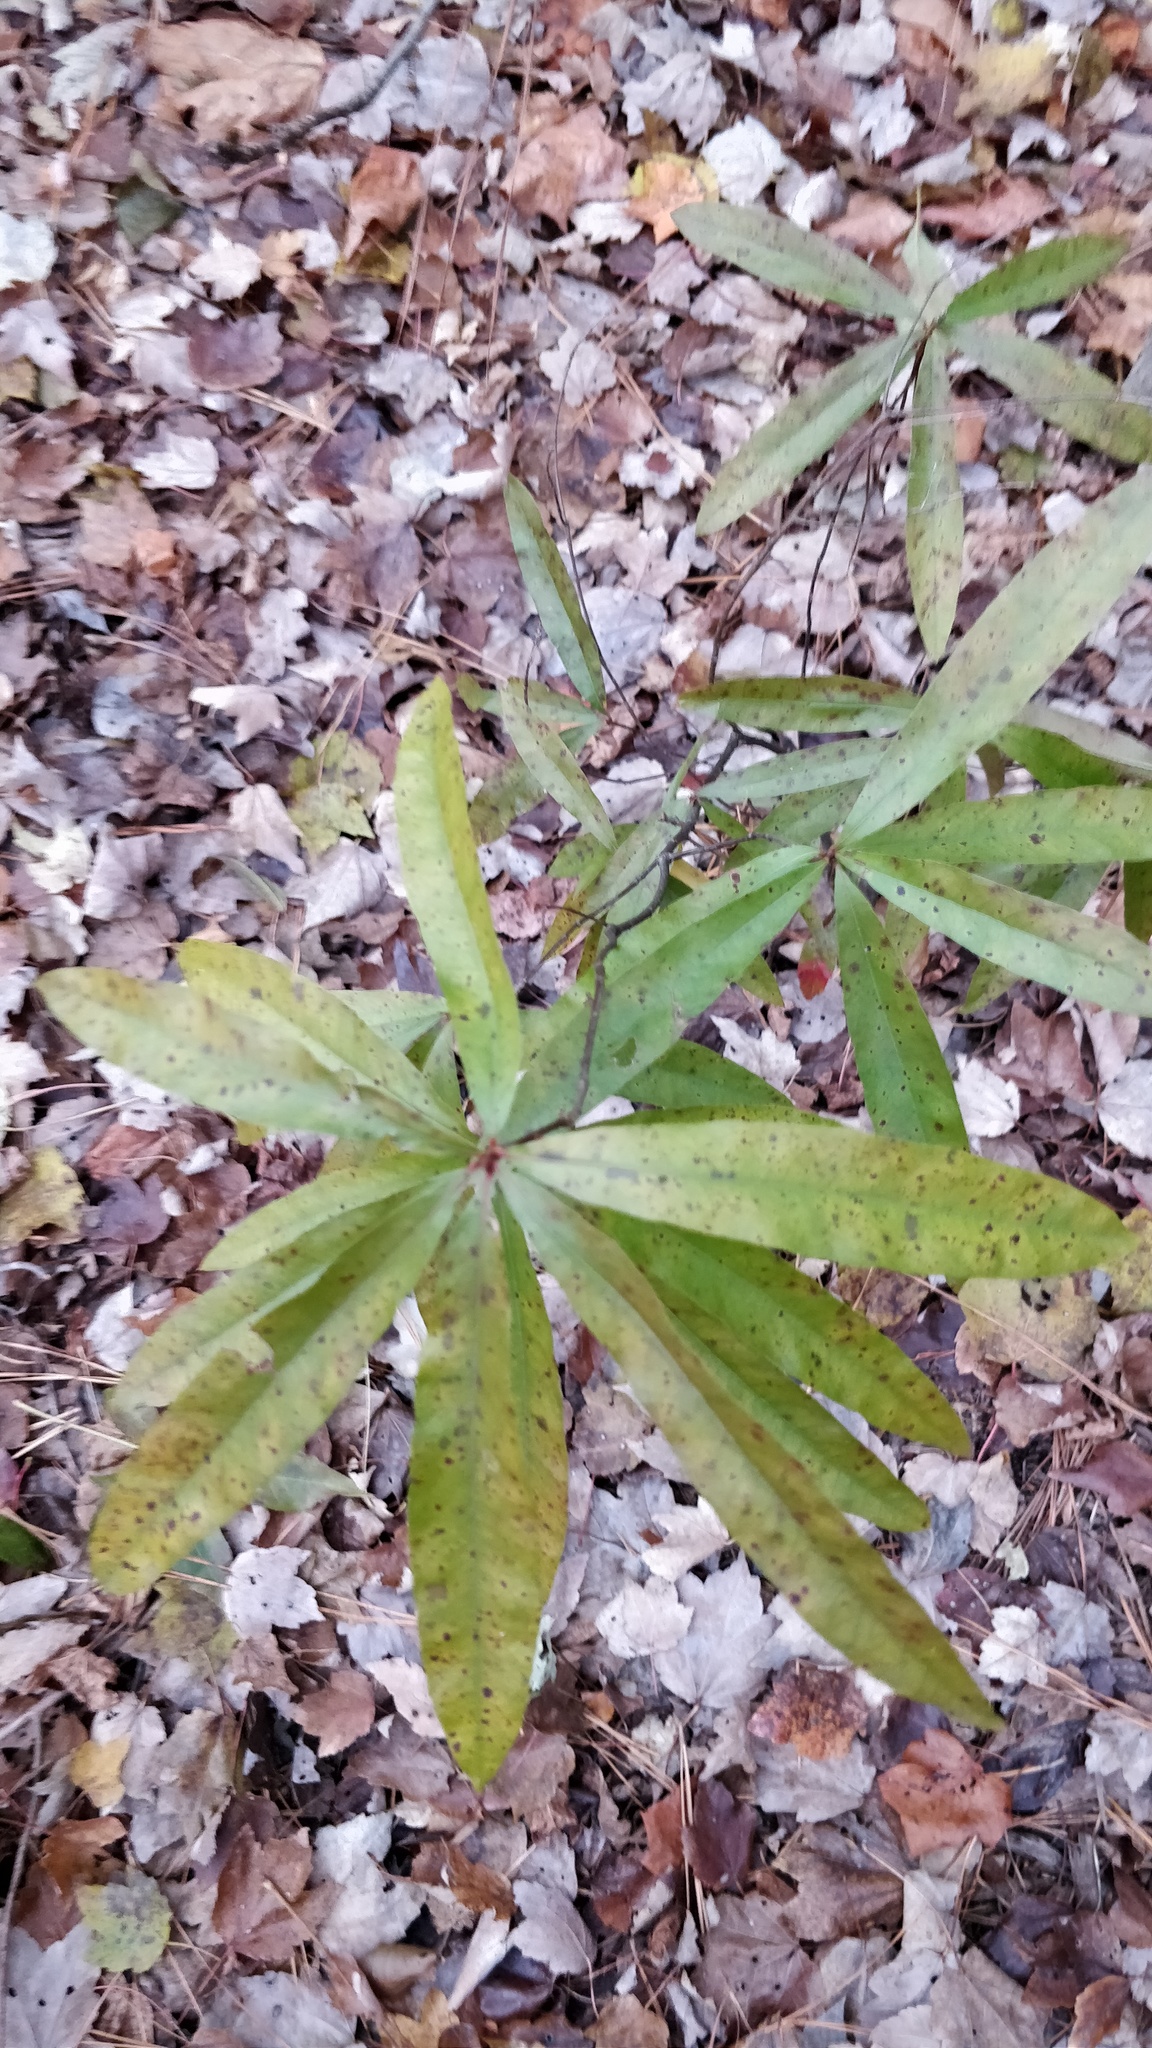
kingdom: Plantae
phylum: Tracheophyta
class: Magnoliopsida
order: Fagales
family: Fagaceae
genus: Quercus
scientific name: Quercus phellos
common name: Willow oak
